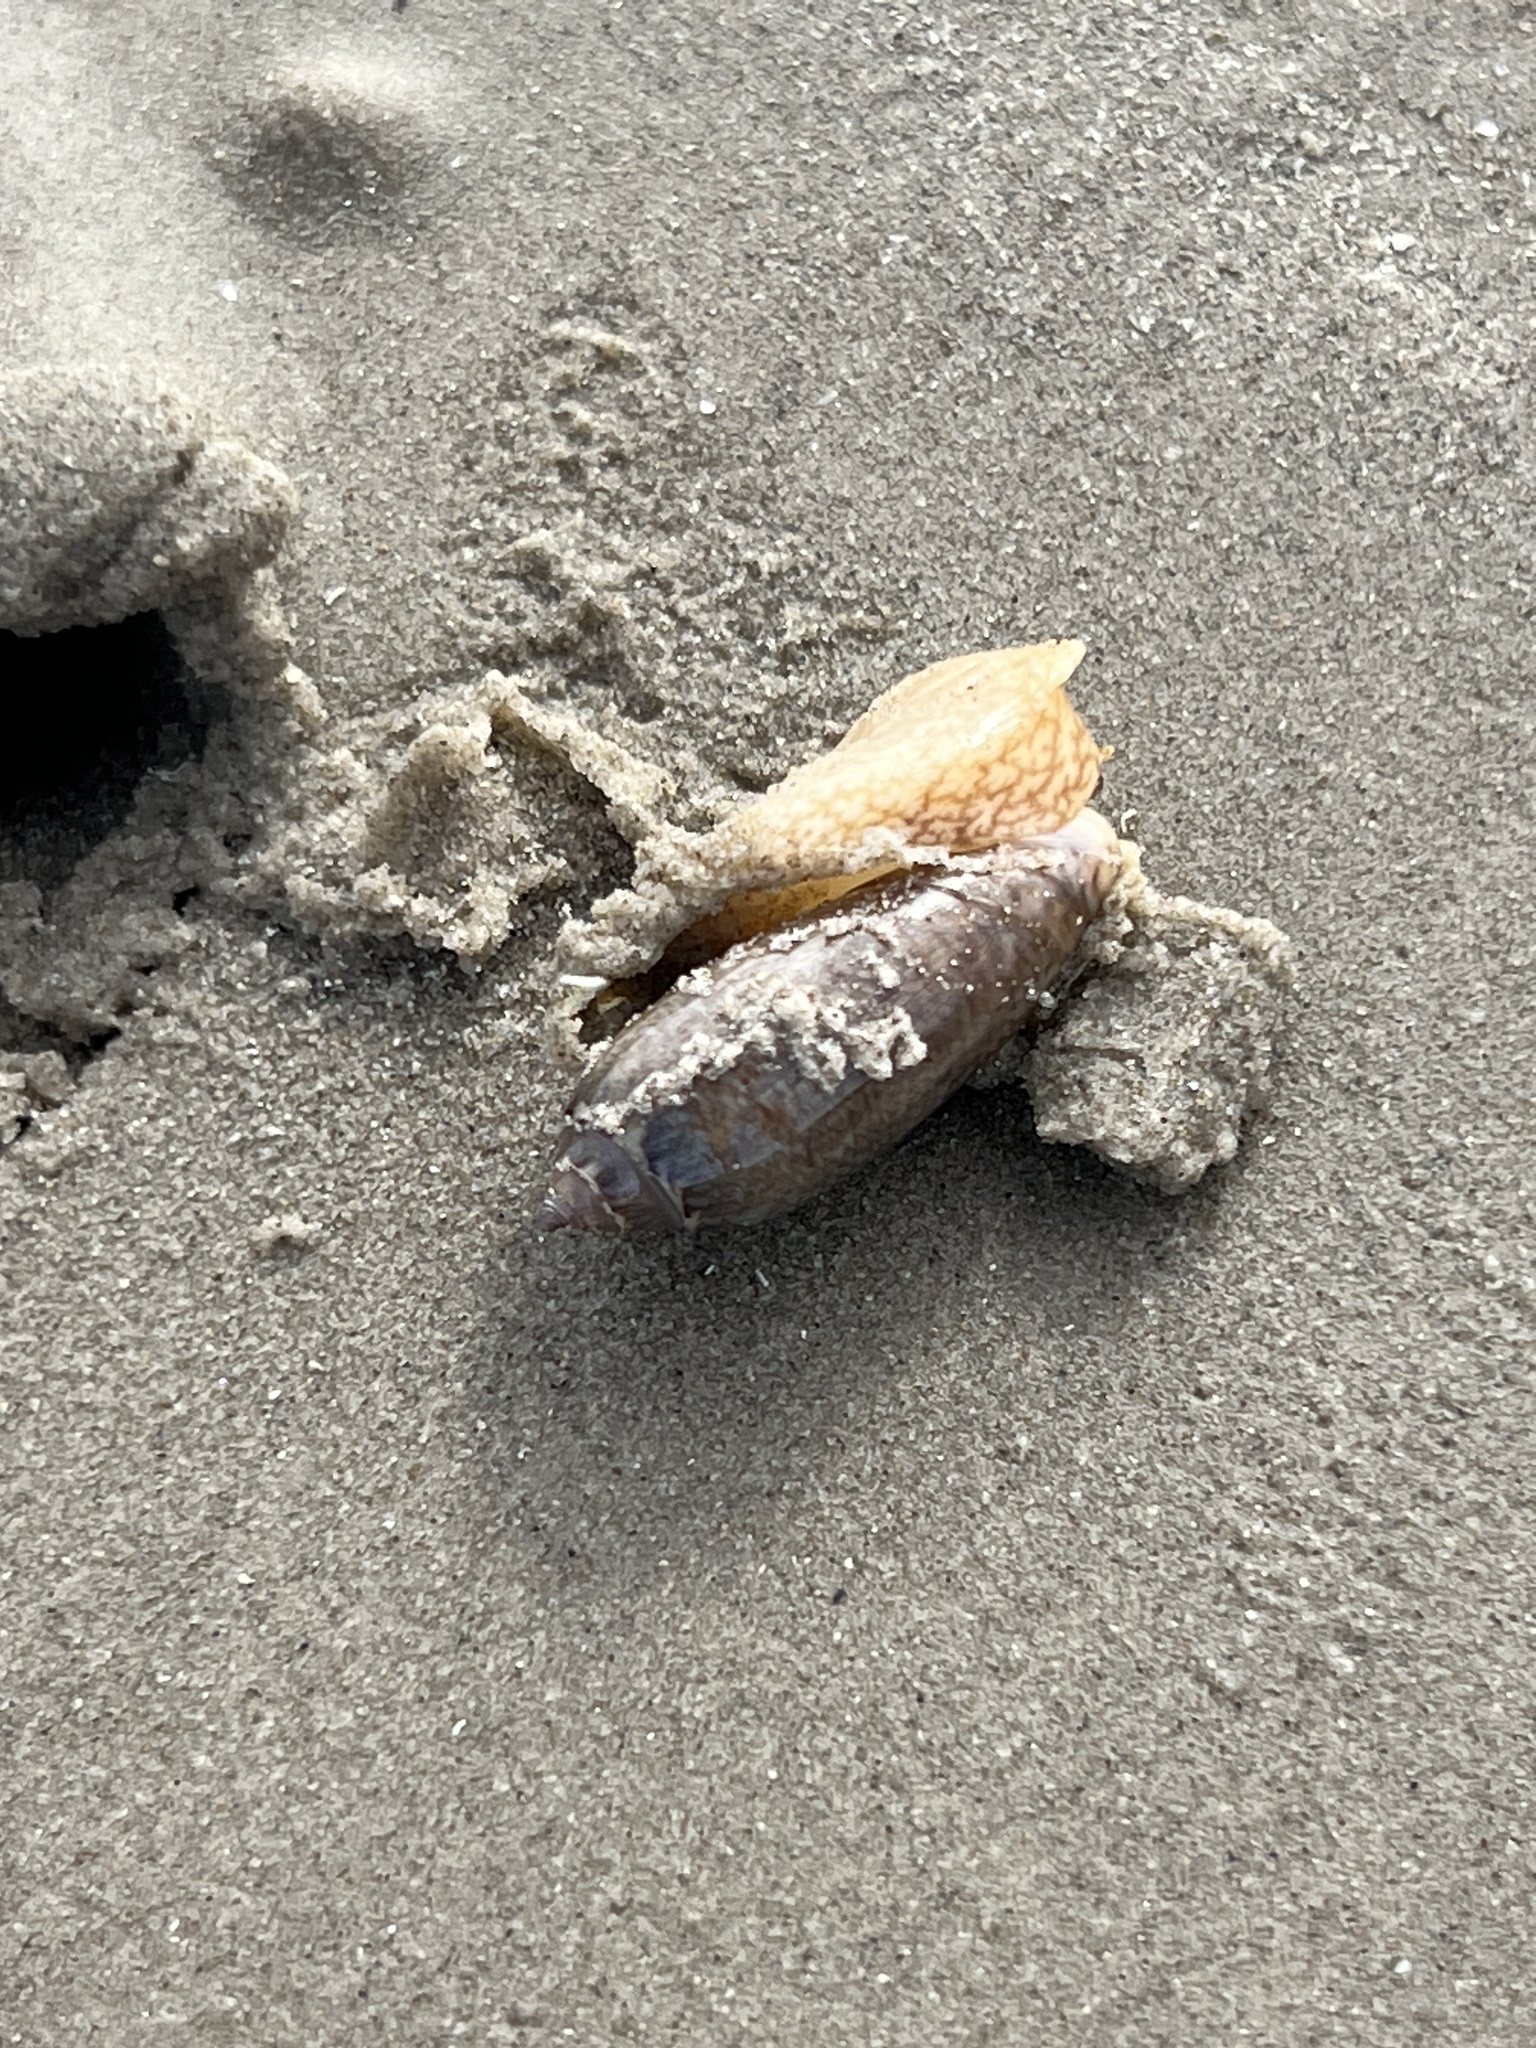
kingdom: Animalia
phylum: Mollusca
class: Gastropoda
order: Neogastropoda
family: Olividae
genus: Oliva
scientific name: Oliva sayana
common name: Lettered olive
